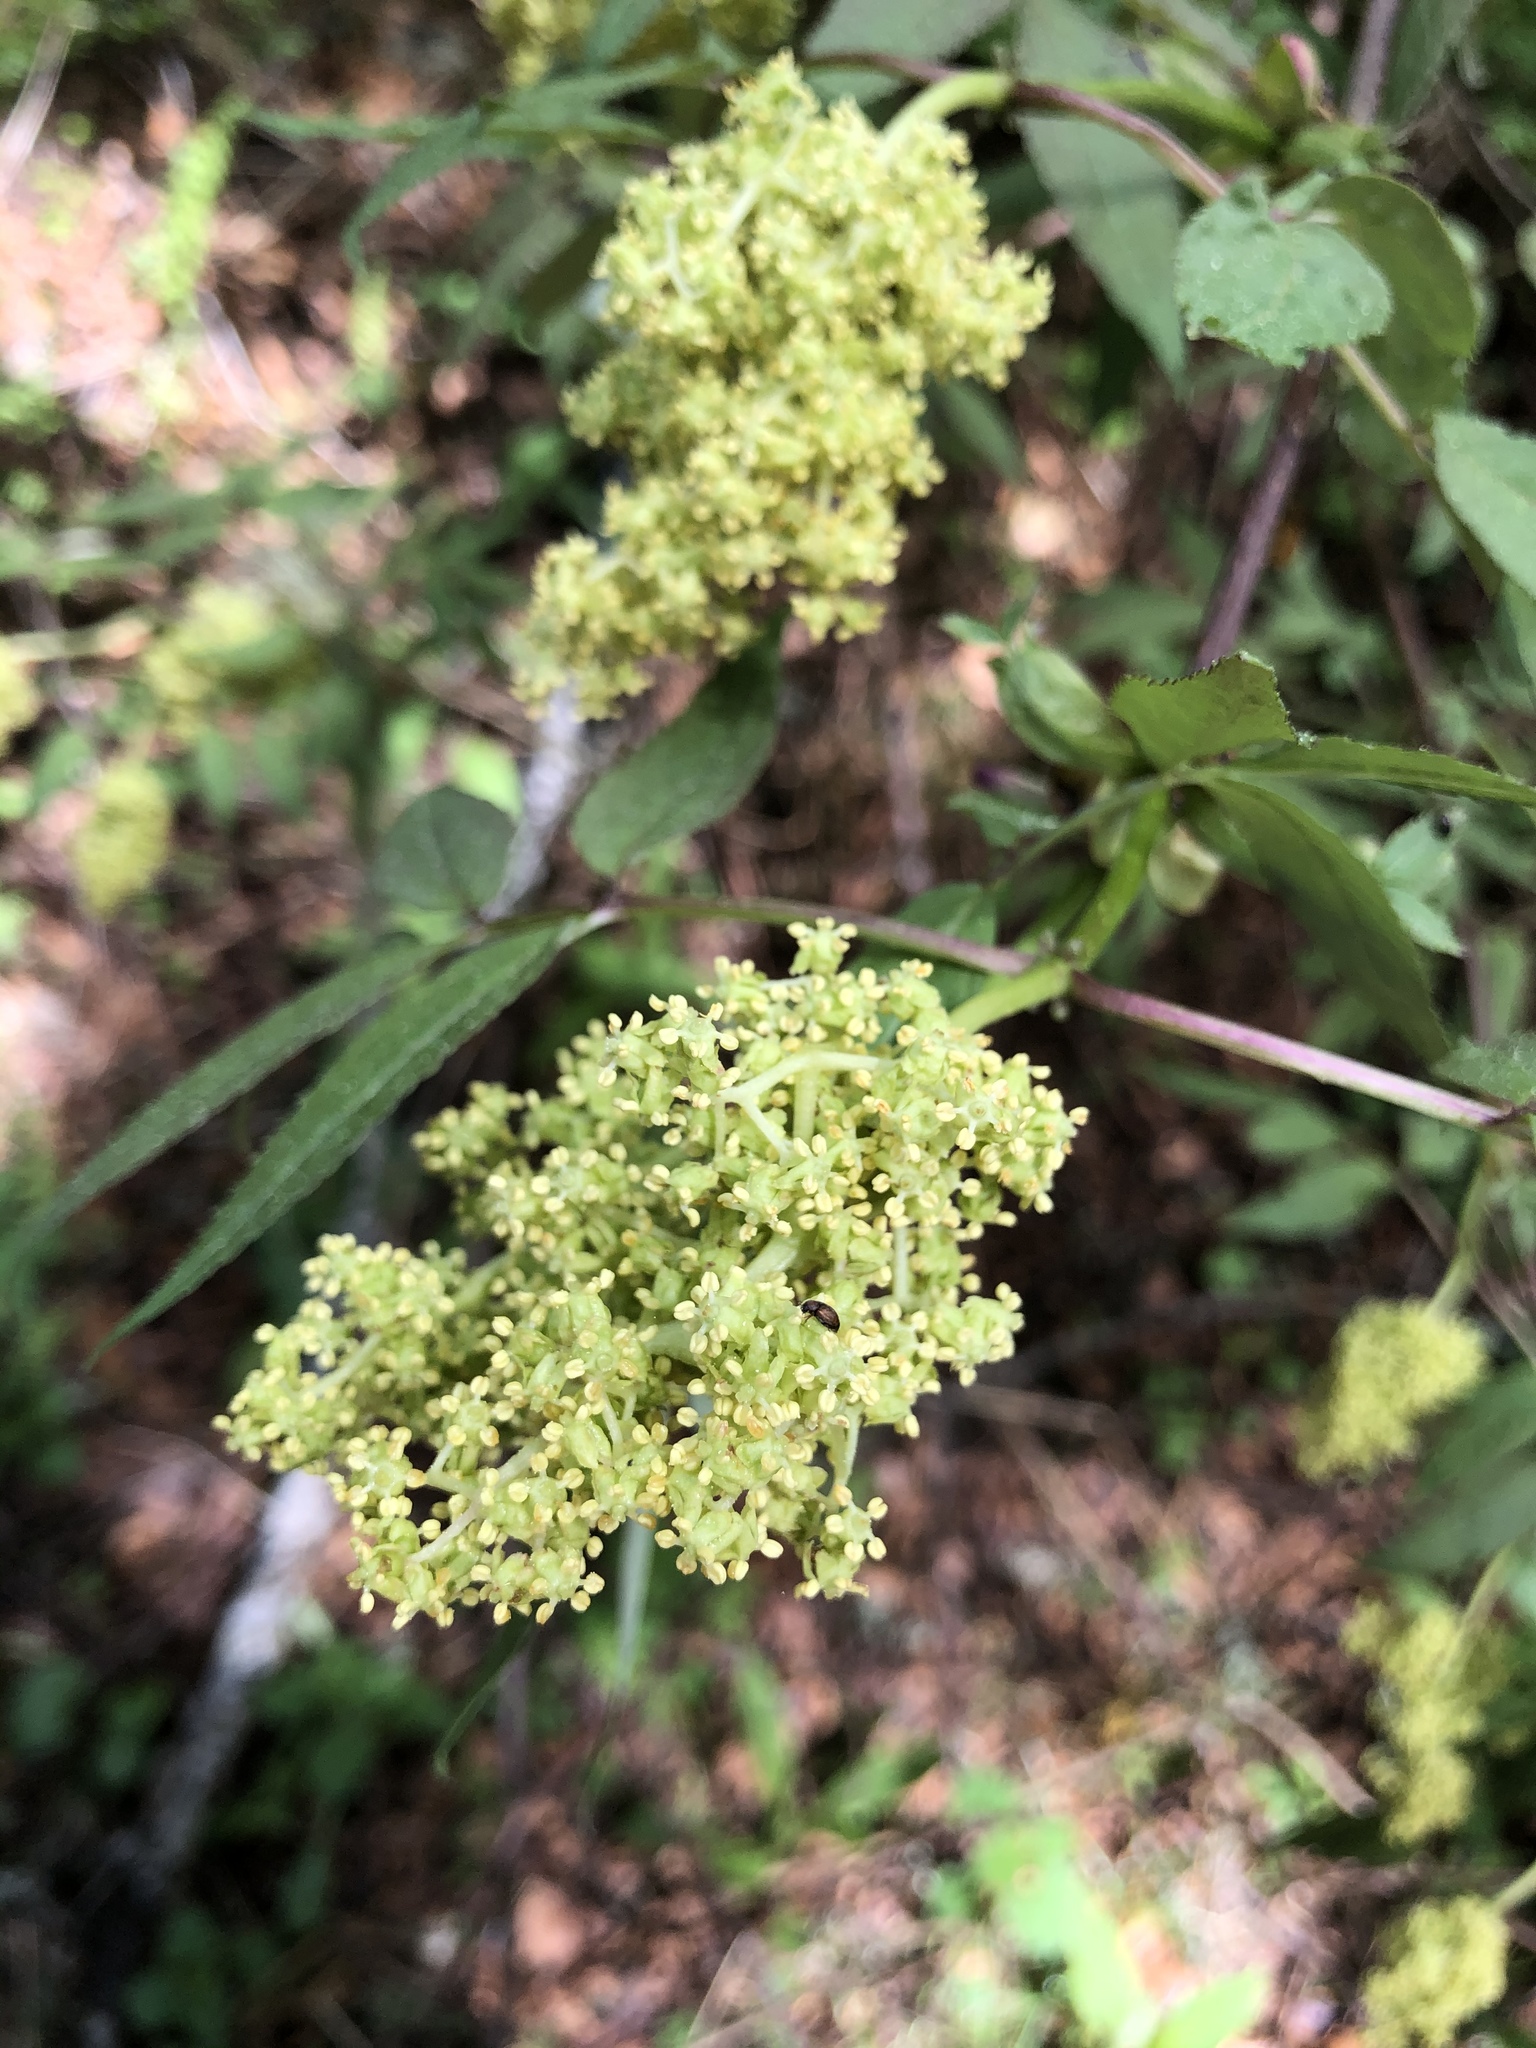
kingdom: Plantae
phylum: Tracheophyta
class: Magnoliopsida
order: Dipsacales
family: Viburnaceae
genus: Sambucus
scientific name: Sambucus racemosa
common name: Red-berried elder
